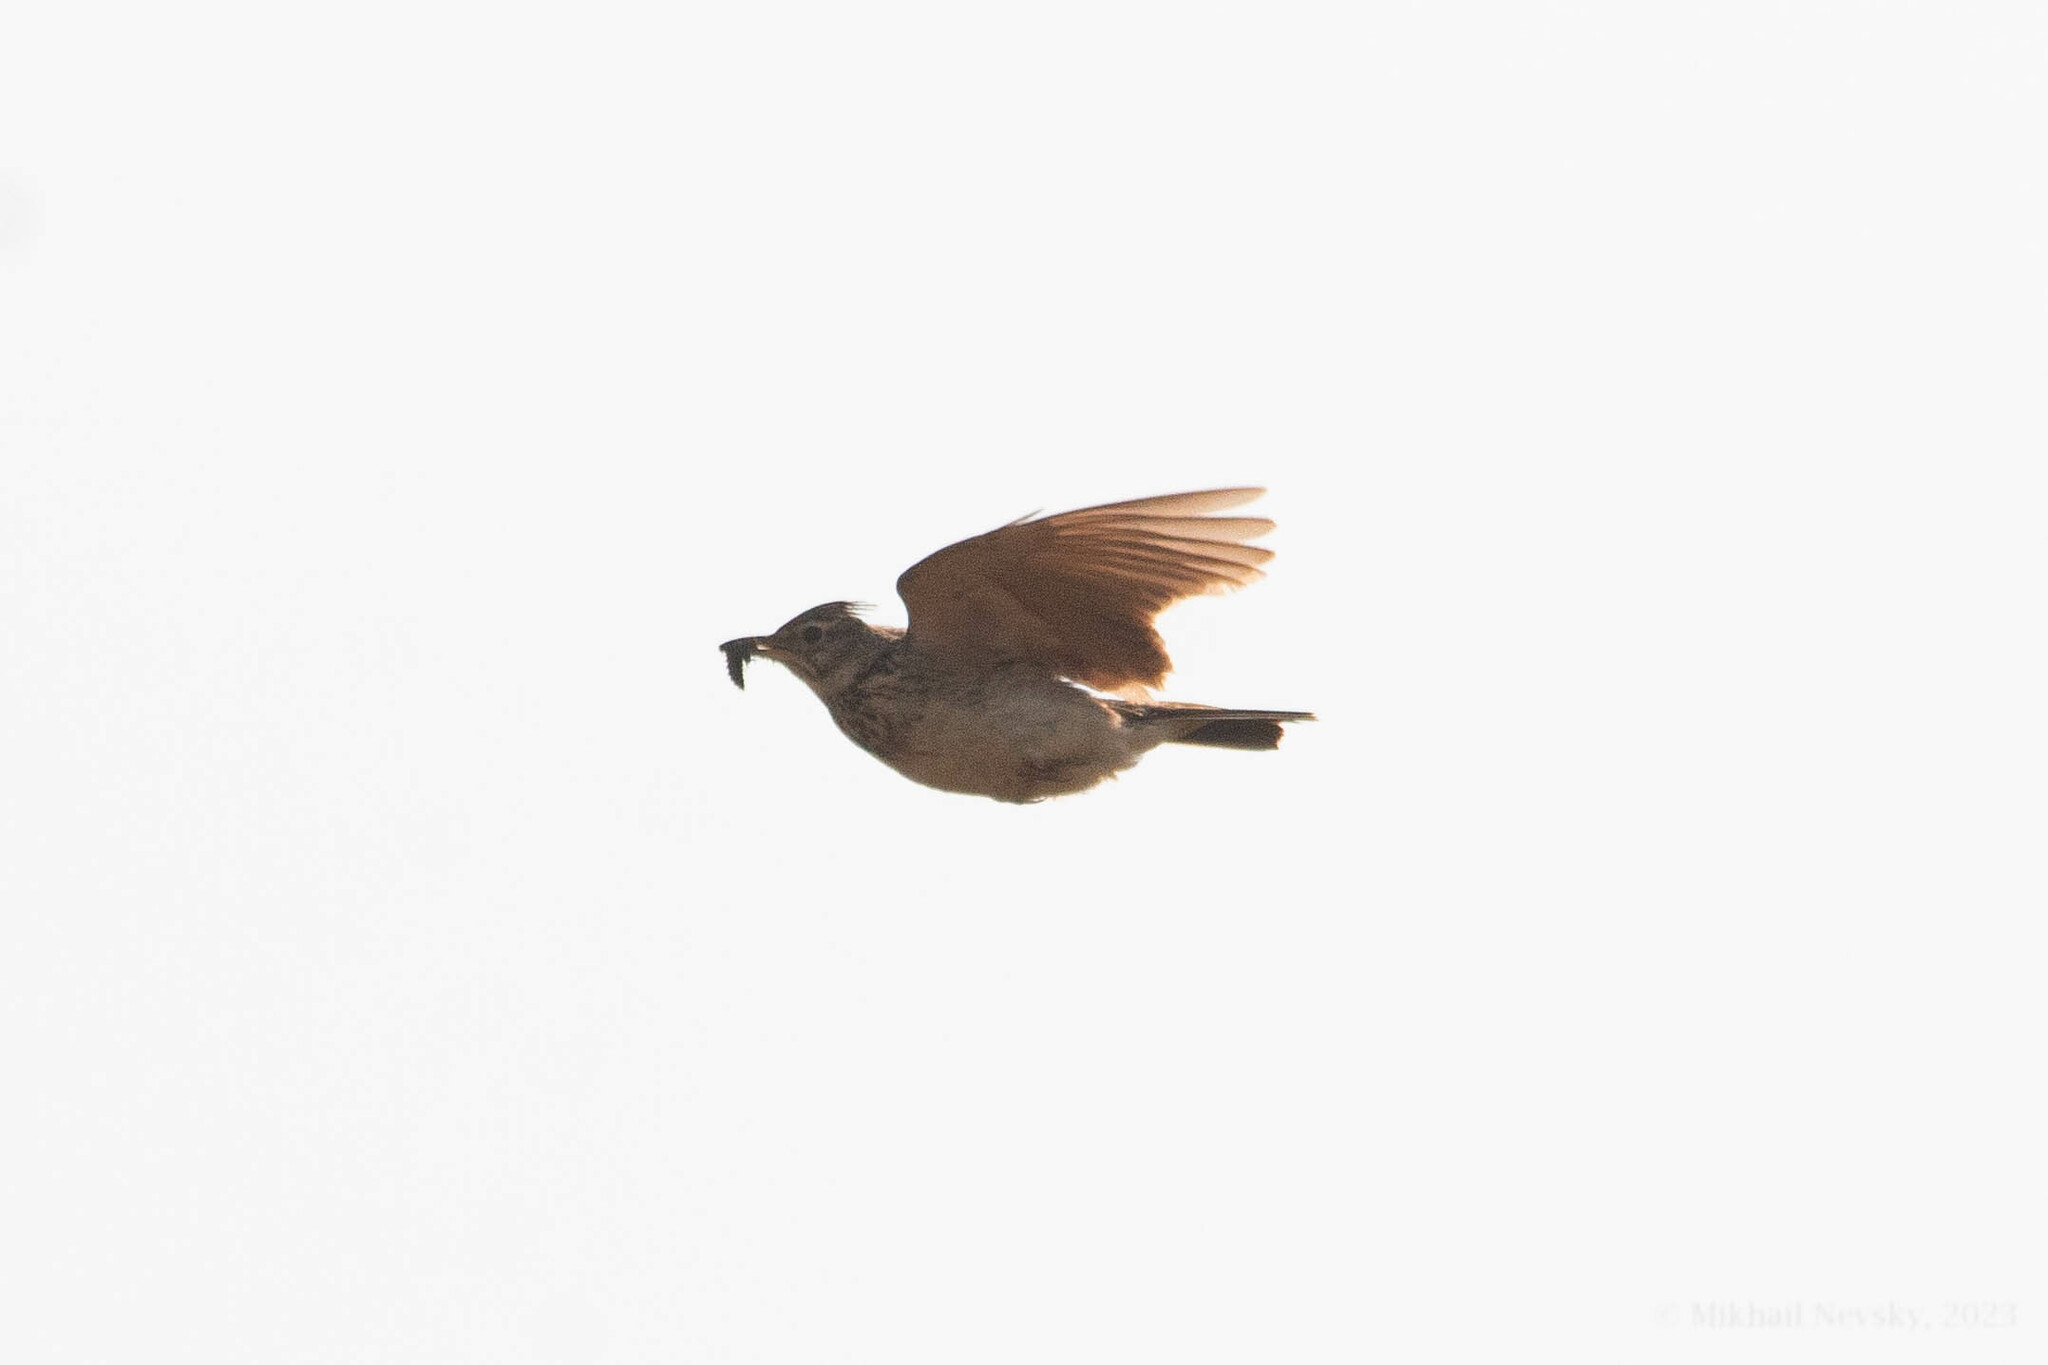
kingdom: Animalia
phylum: Chordata
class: Aves
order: Passeriformes
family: Alaudidae
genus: Galerida
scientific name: Galerida cristata
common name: Crested lark
